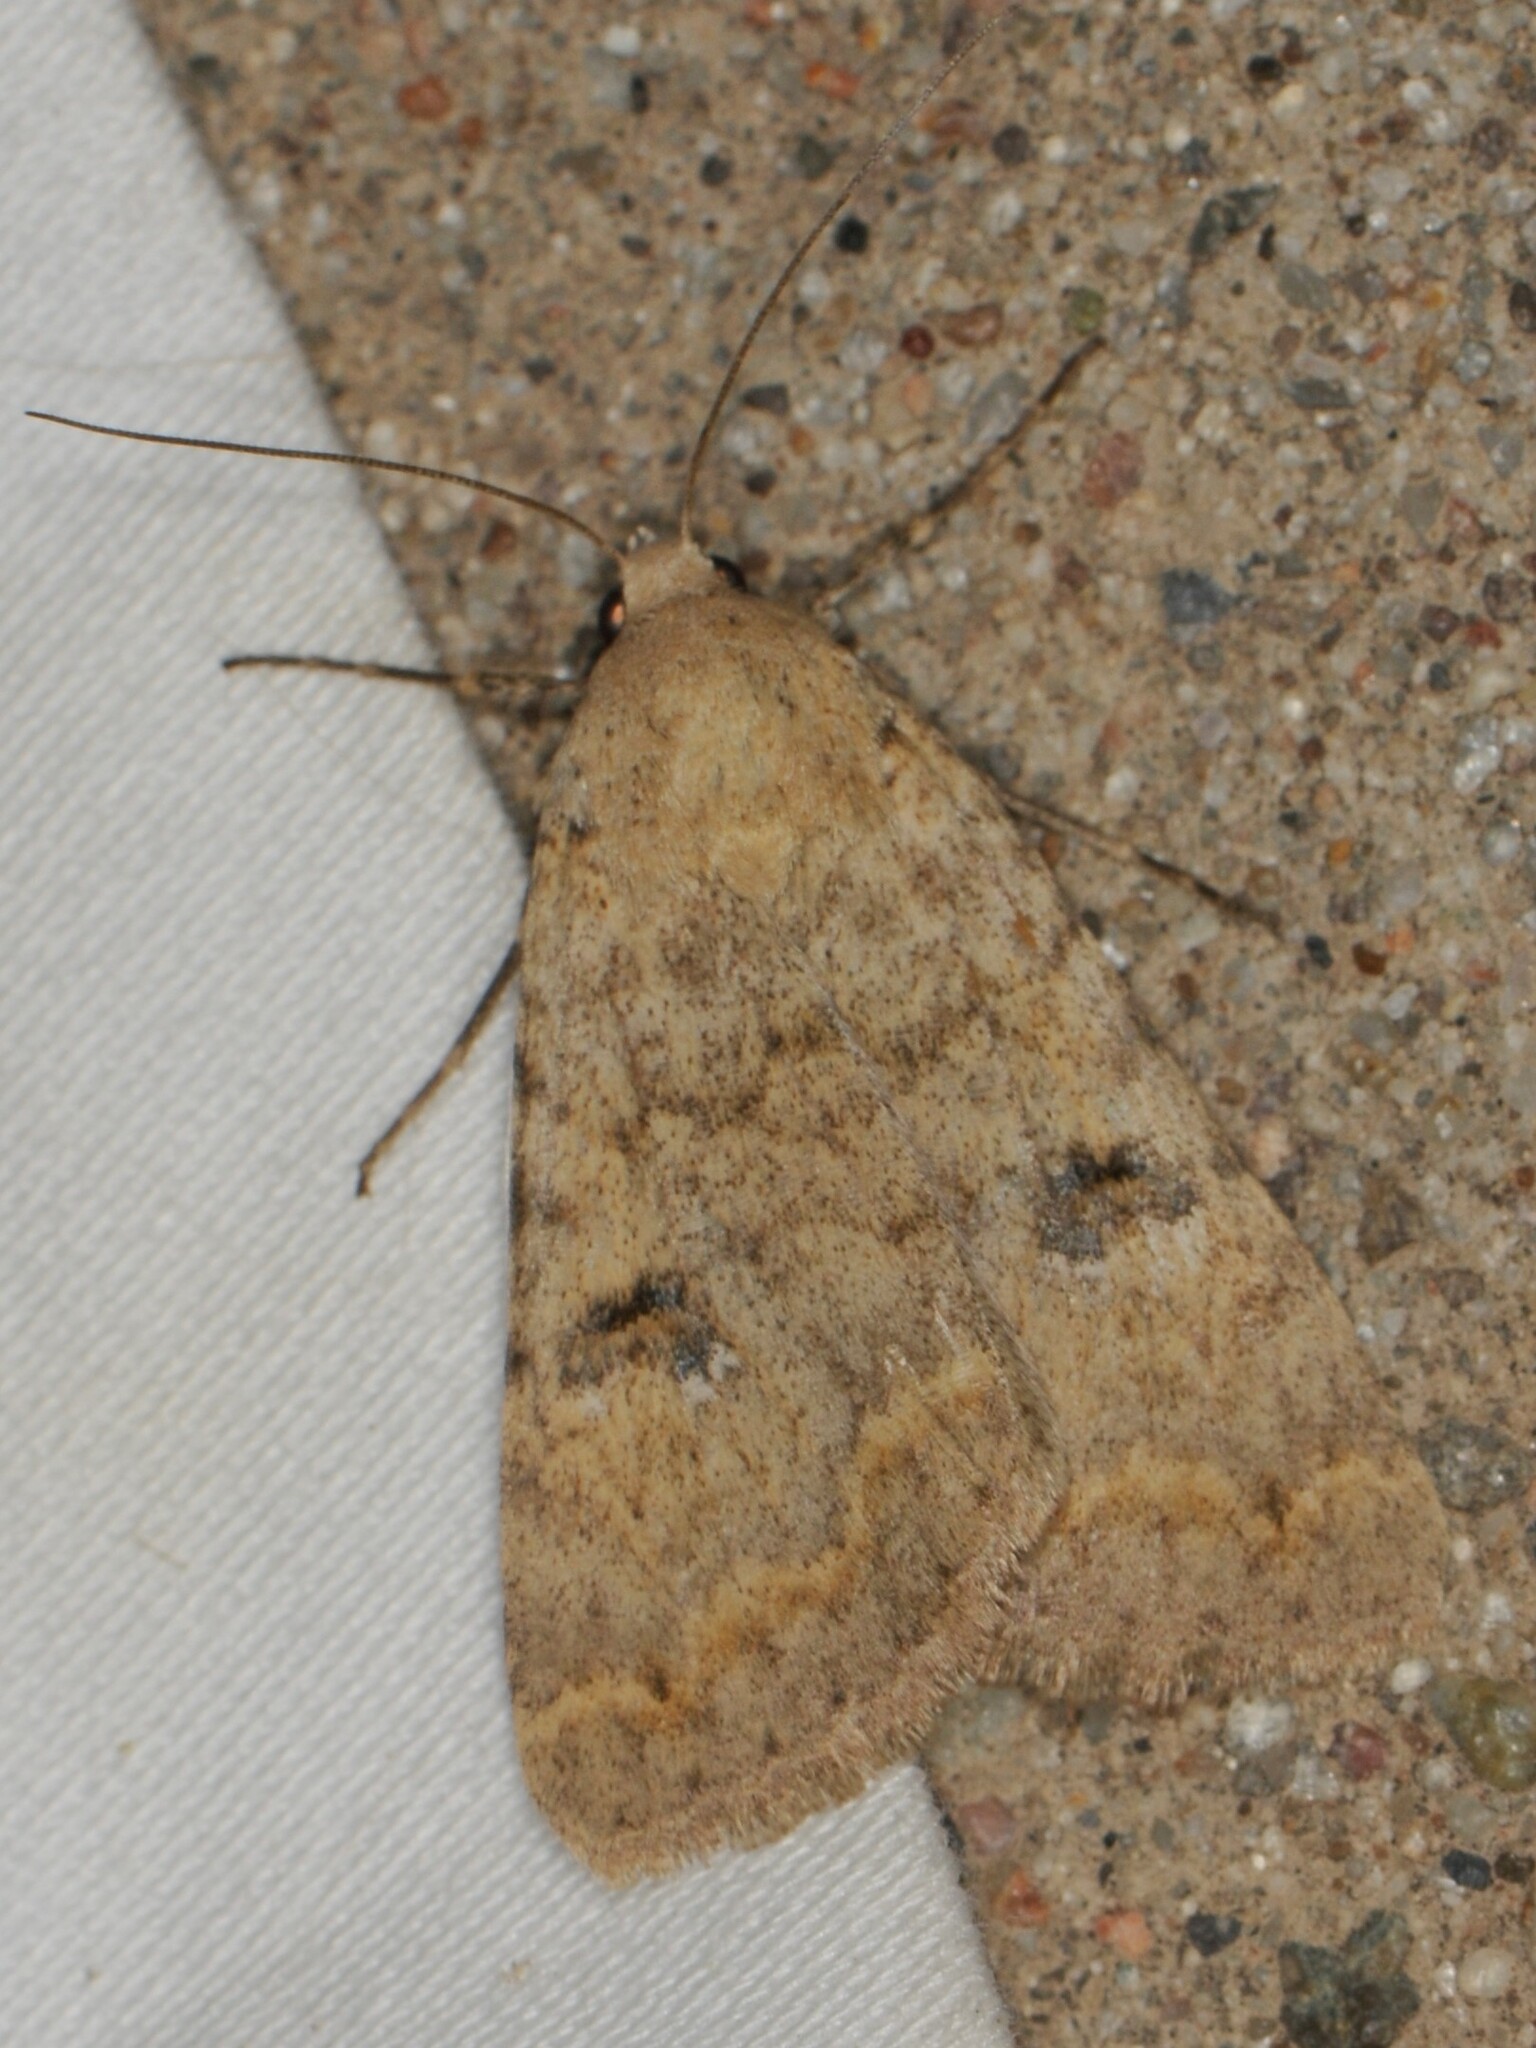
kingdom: Animalia
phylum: Arthropoda
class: Insecta
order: Lepidoptera
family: Erebidae
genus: Drasteria
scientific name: Drasteria inepta
